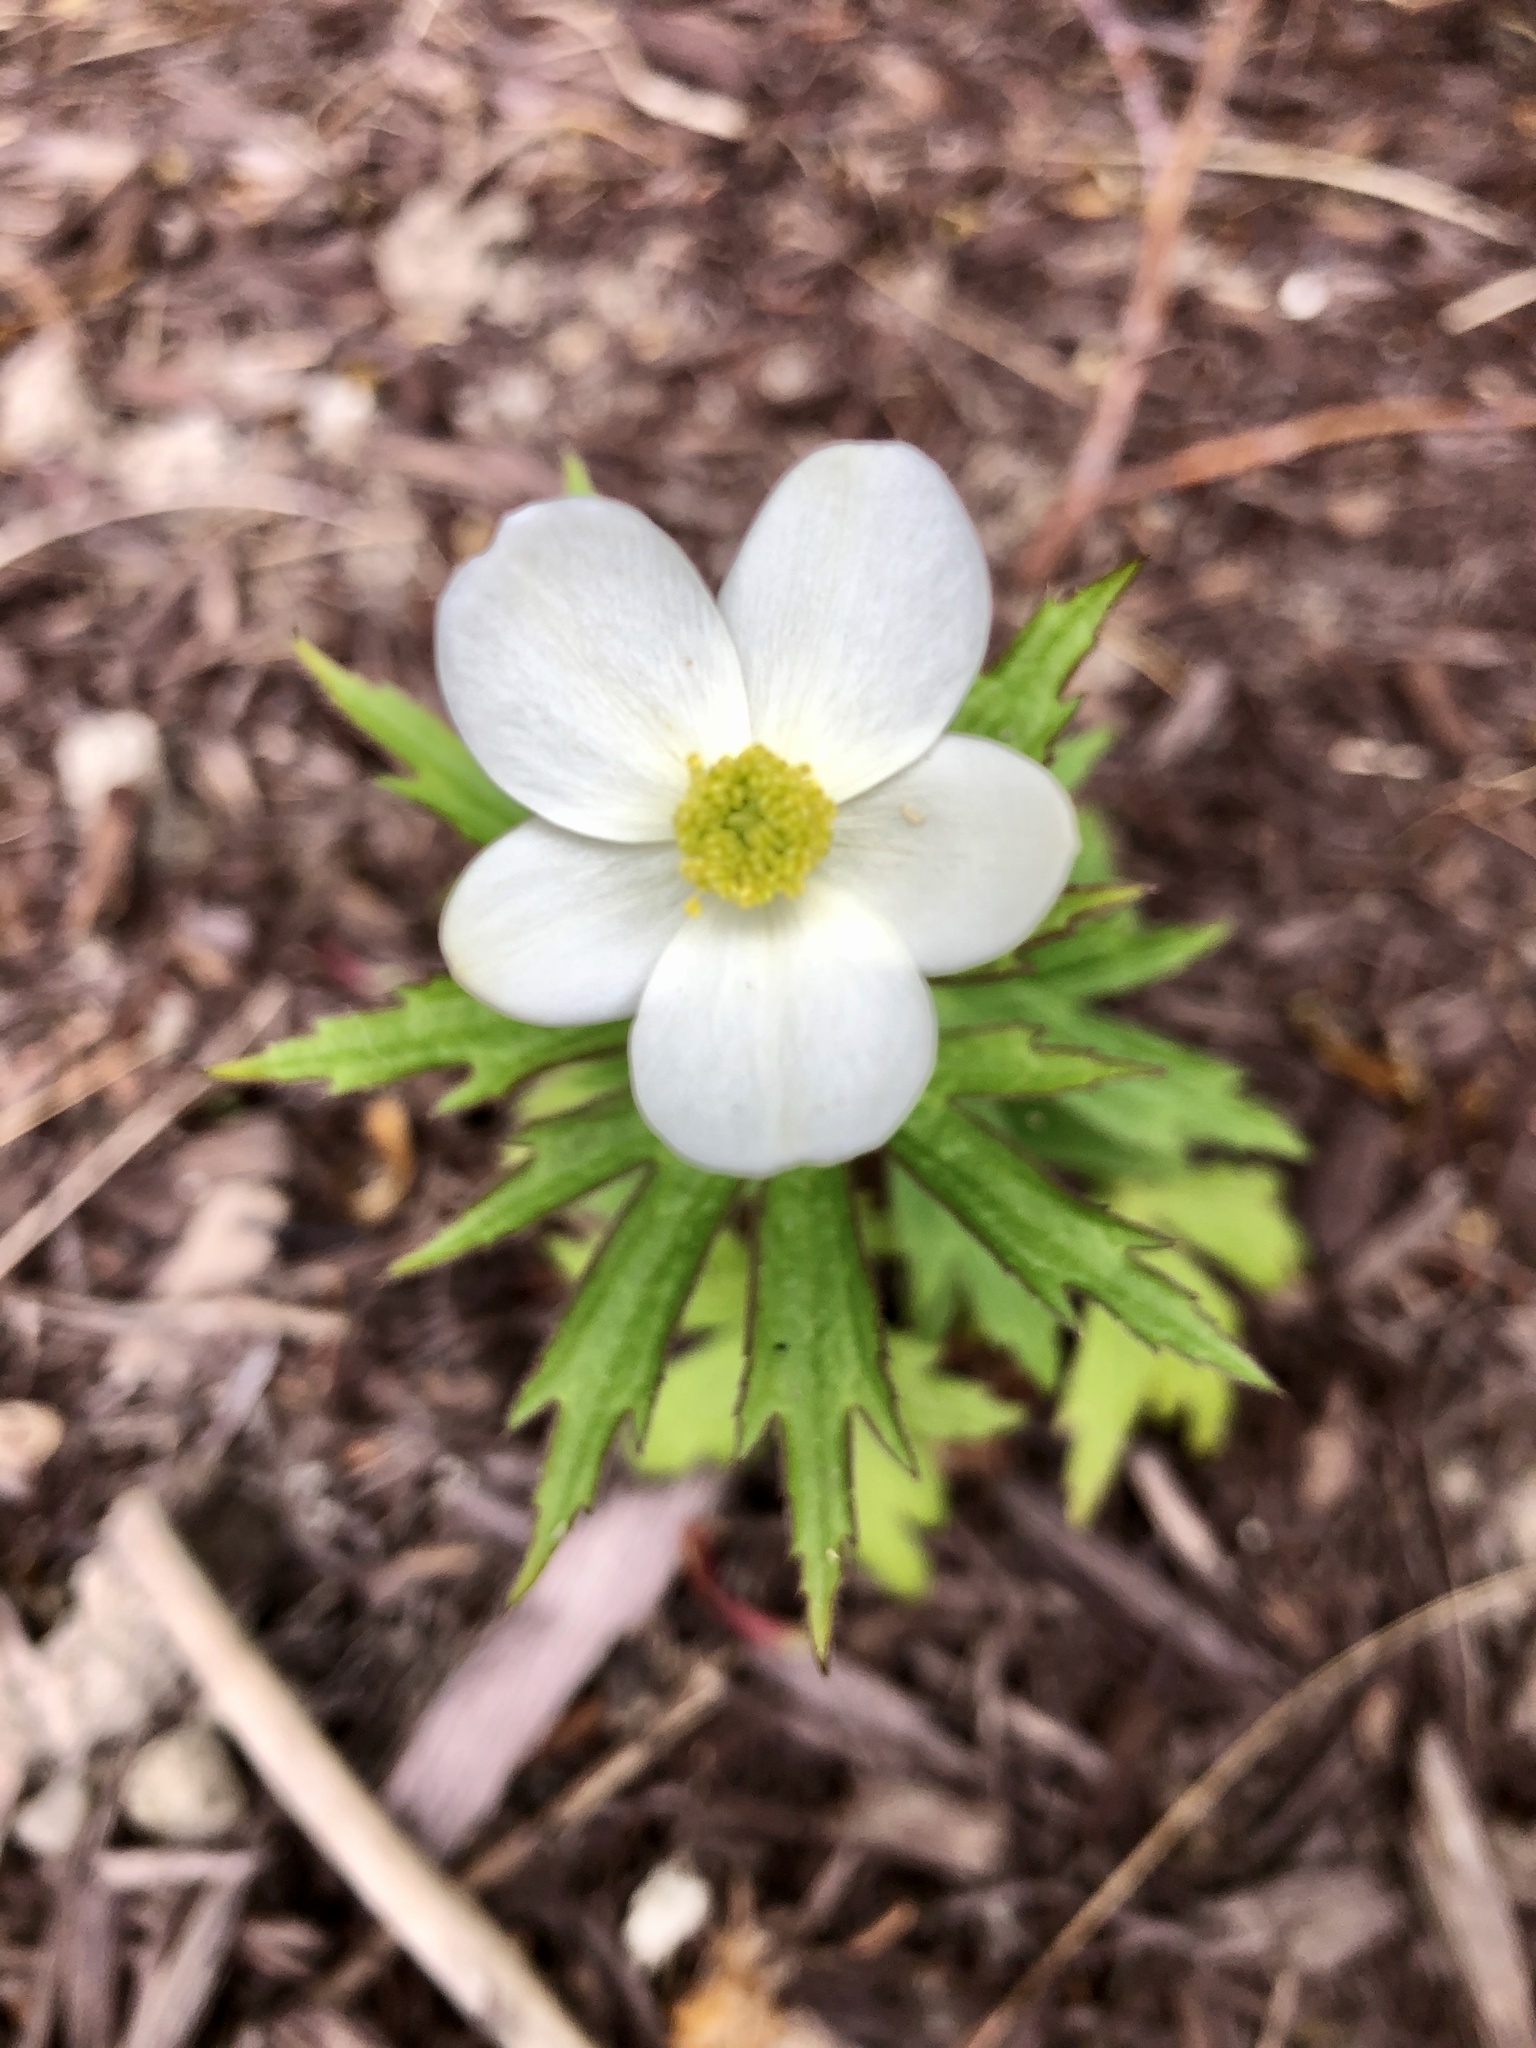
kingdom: Plantae
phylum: Tracheophyta
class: Magnoliopsida
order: Ranunculales
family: Ranunculaceae
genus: Anemonastrum
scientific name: Anemonastrum canadense
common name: Canada anemone
